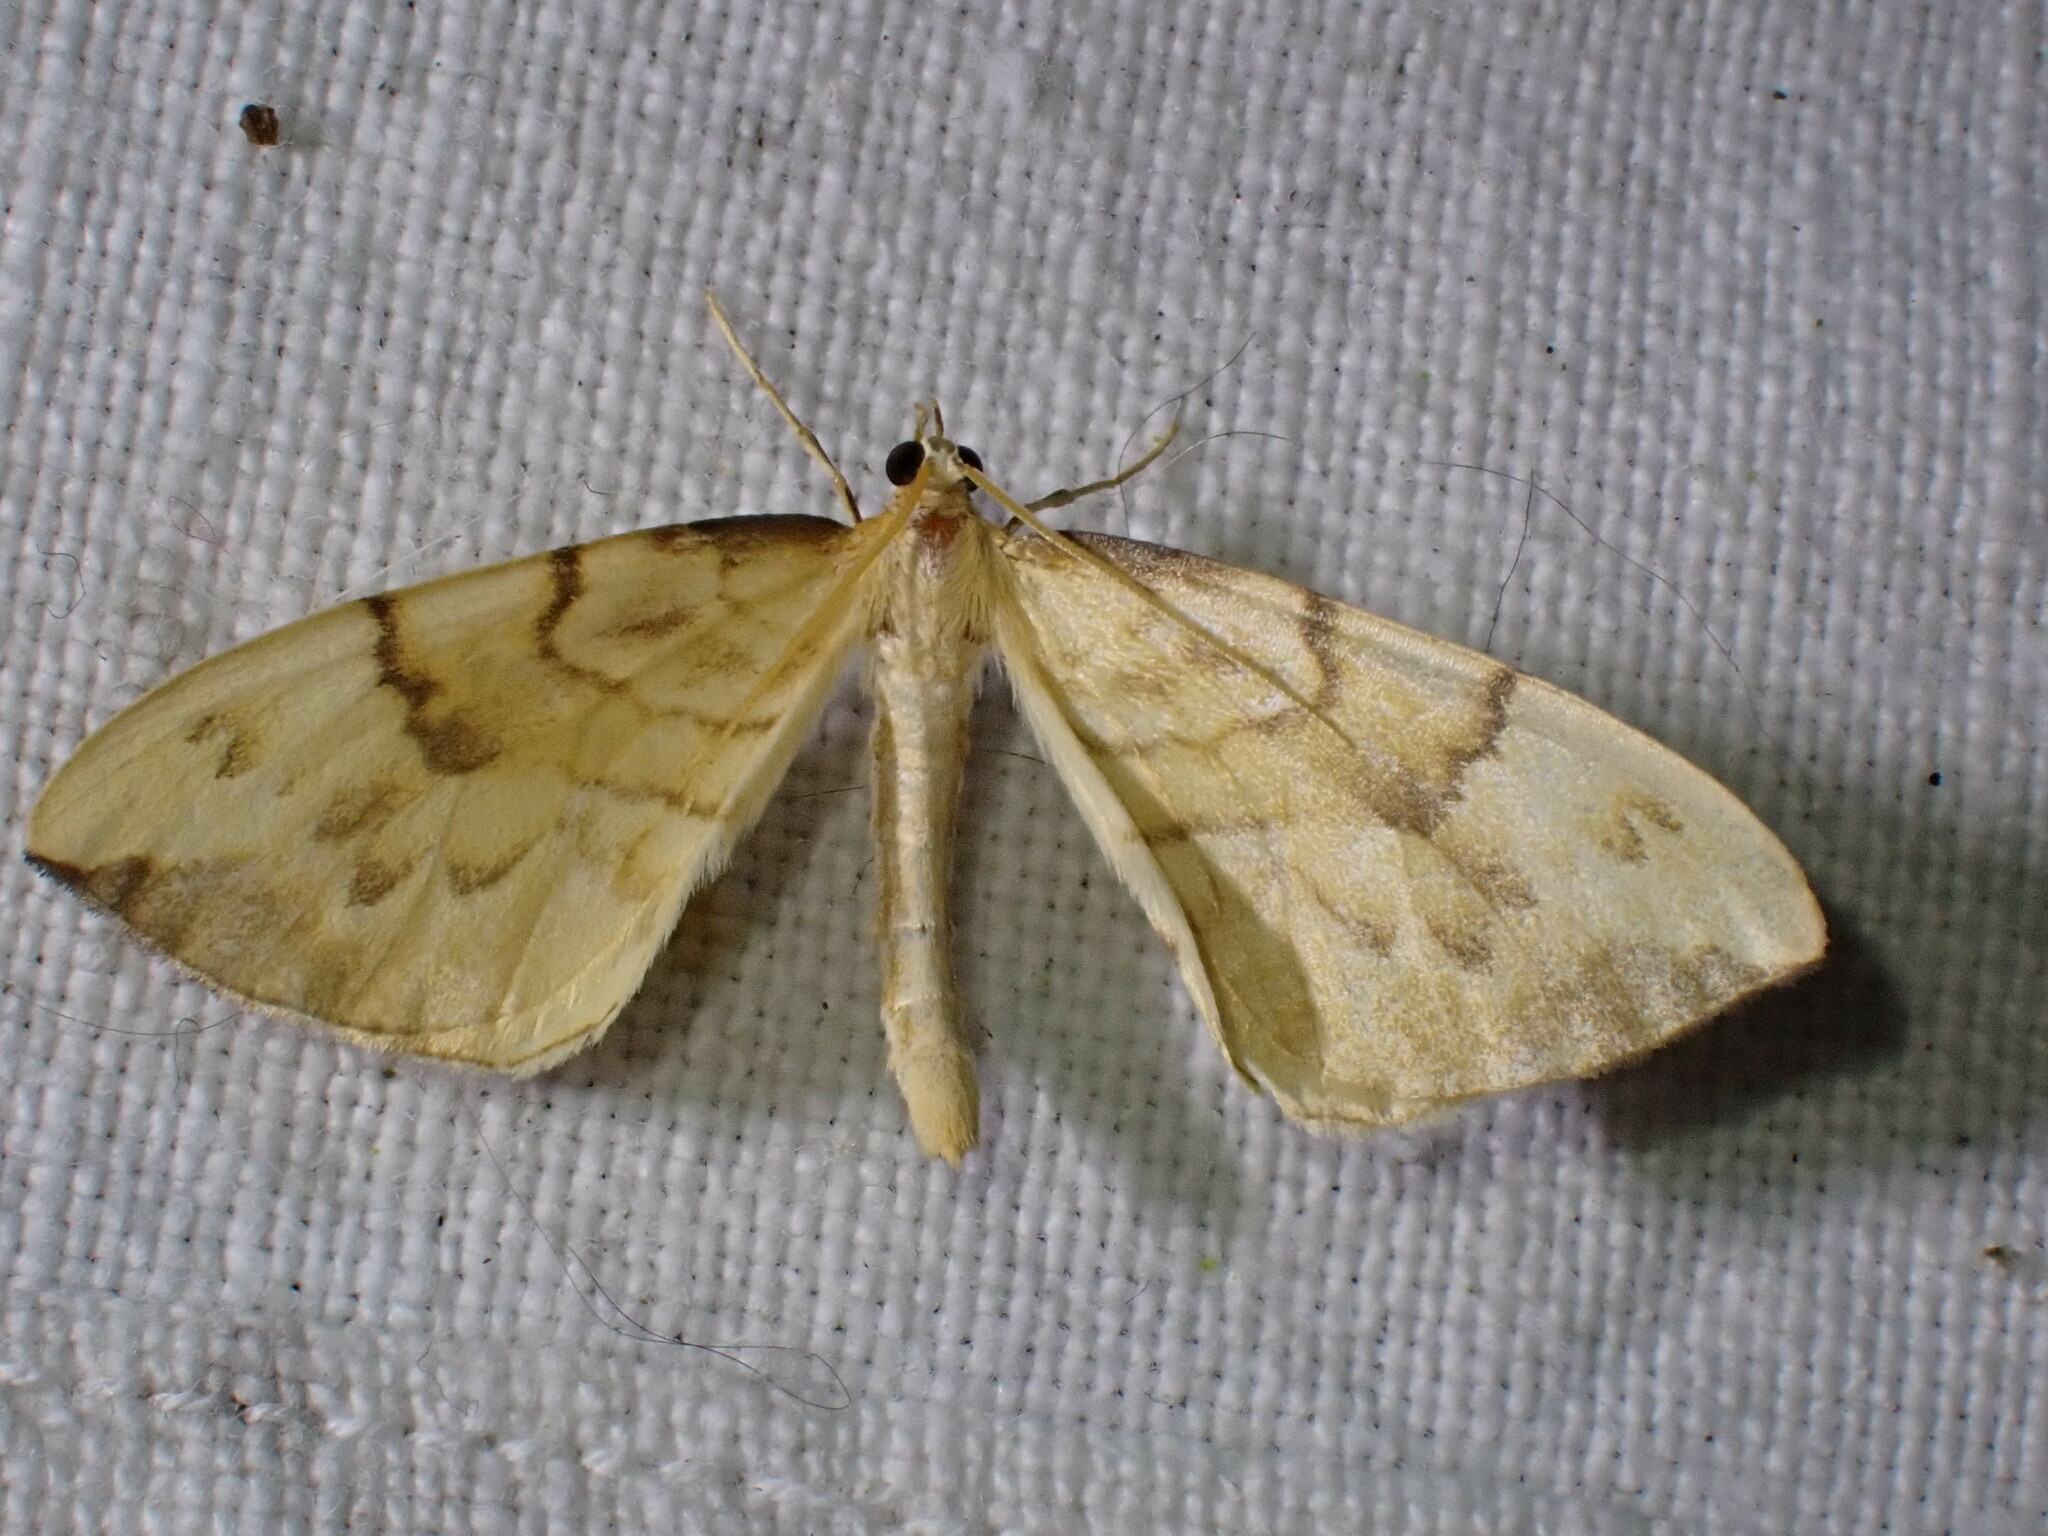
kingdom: Animalia
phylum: Arthropoda
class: Insecta
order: Lepidoptera
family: Geometridae
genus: Eulithis
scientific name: Eulithis pyraliata
